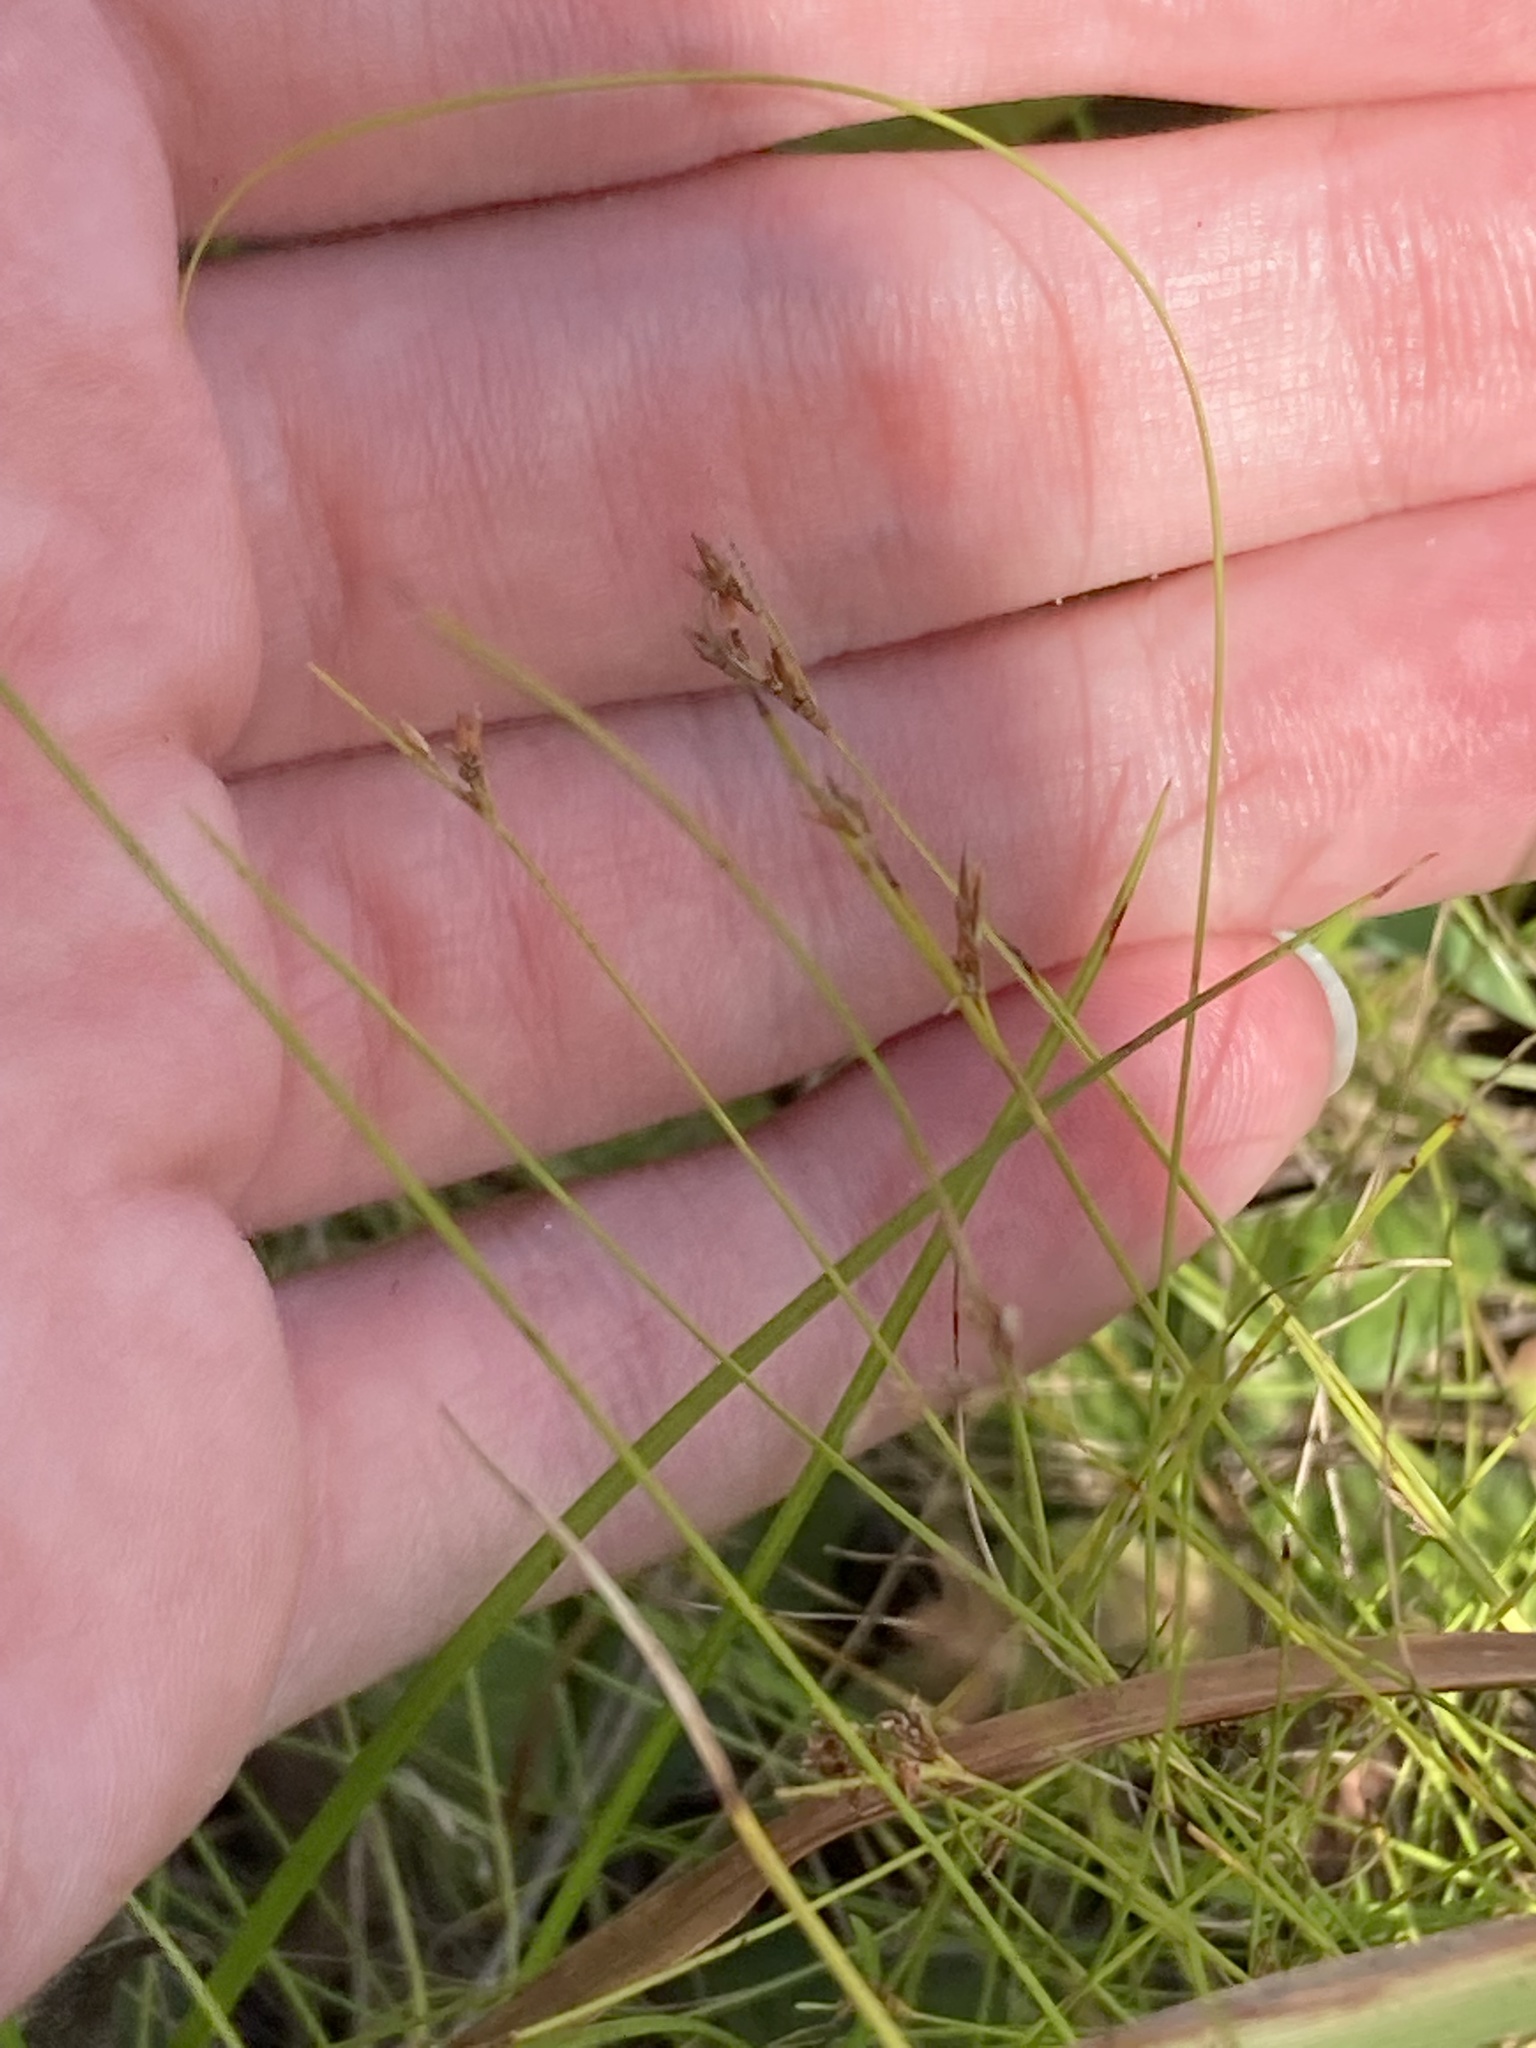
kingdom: Plantae
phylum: Tracheophyta
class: Liliopsida
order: Poales
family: Cyperaceae
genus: Rhynchospora
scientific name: Rhynchospora divergens
